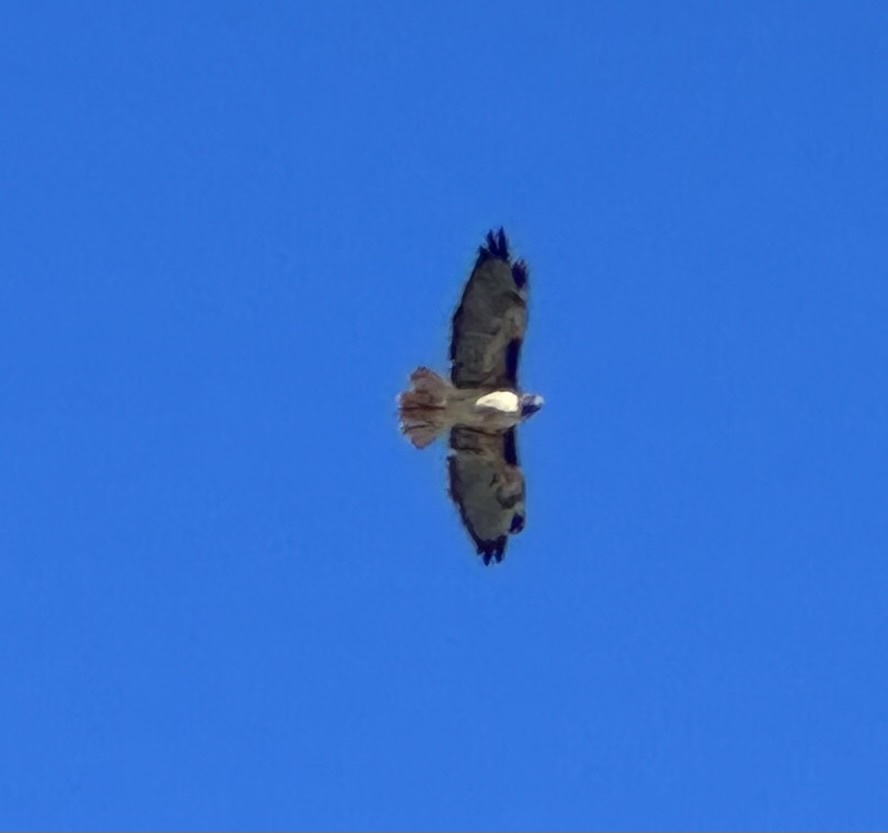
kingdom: Animalia
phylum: Chordata
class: Aves
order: Accipitriformes
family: Accipitridae
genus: Buteo
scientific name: Buteo jamaicensis
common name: Red-tailed hawk
